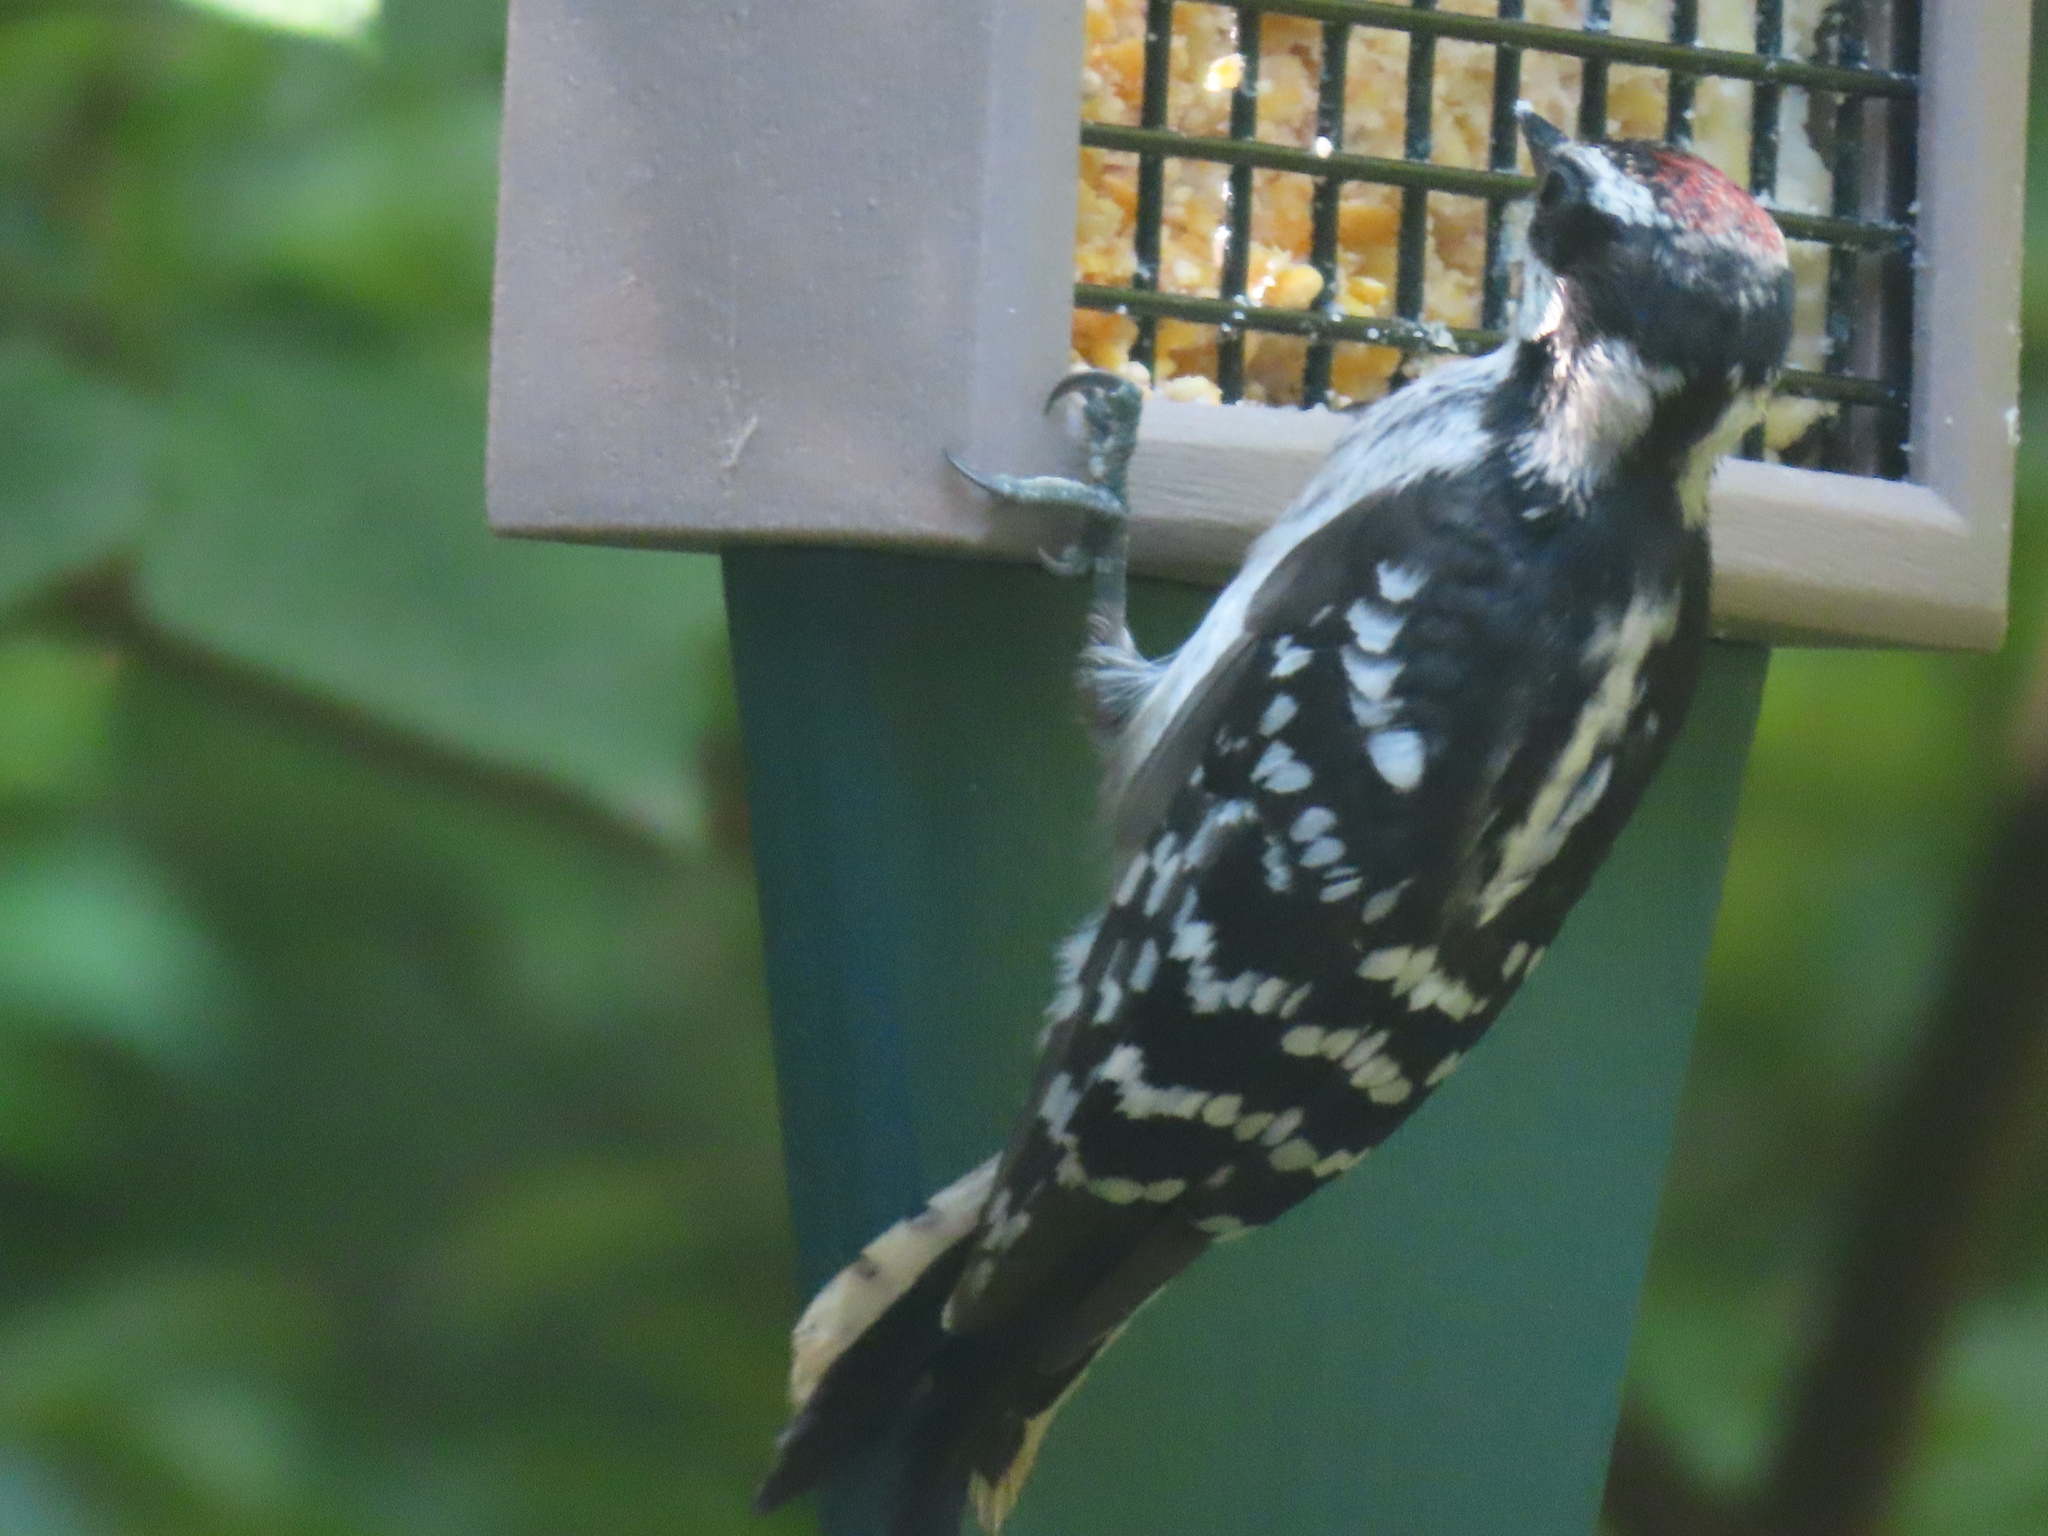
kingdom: Animalia
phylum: Chordata
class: Aves
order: Piciformes
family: Picidae
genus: Dryobates
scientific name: Dryobates pubescens
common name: Downy woodpecker
